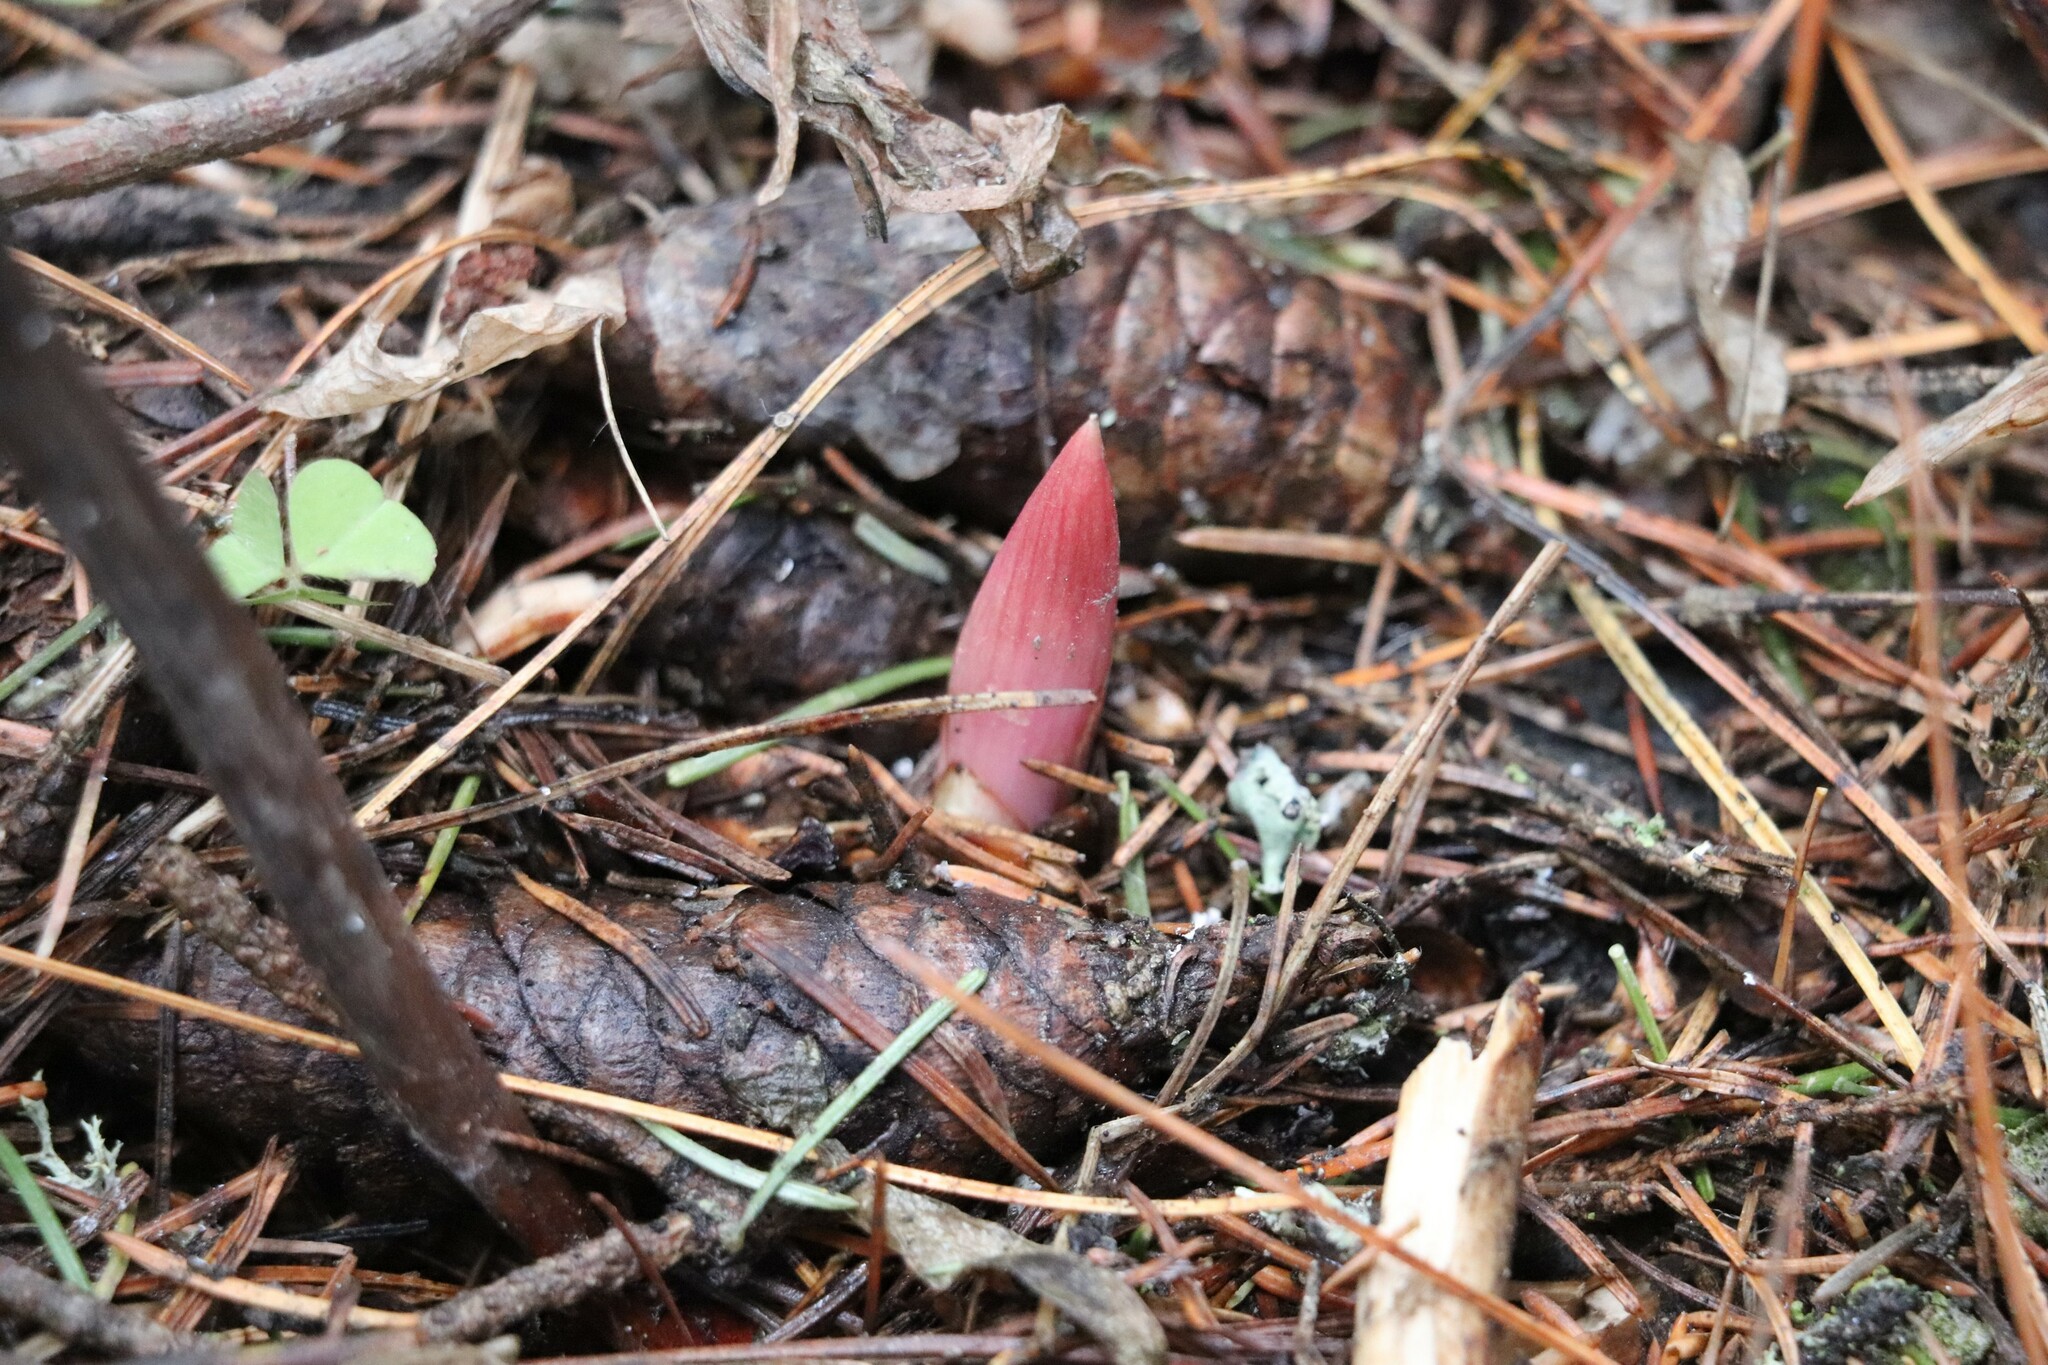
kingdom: Plantae
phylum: Tracheophyta
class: Magnoliopsida
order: Saxifragales
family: Paeoniaceae
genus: Paeonia
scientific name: Paeonia anomala
